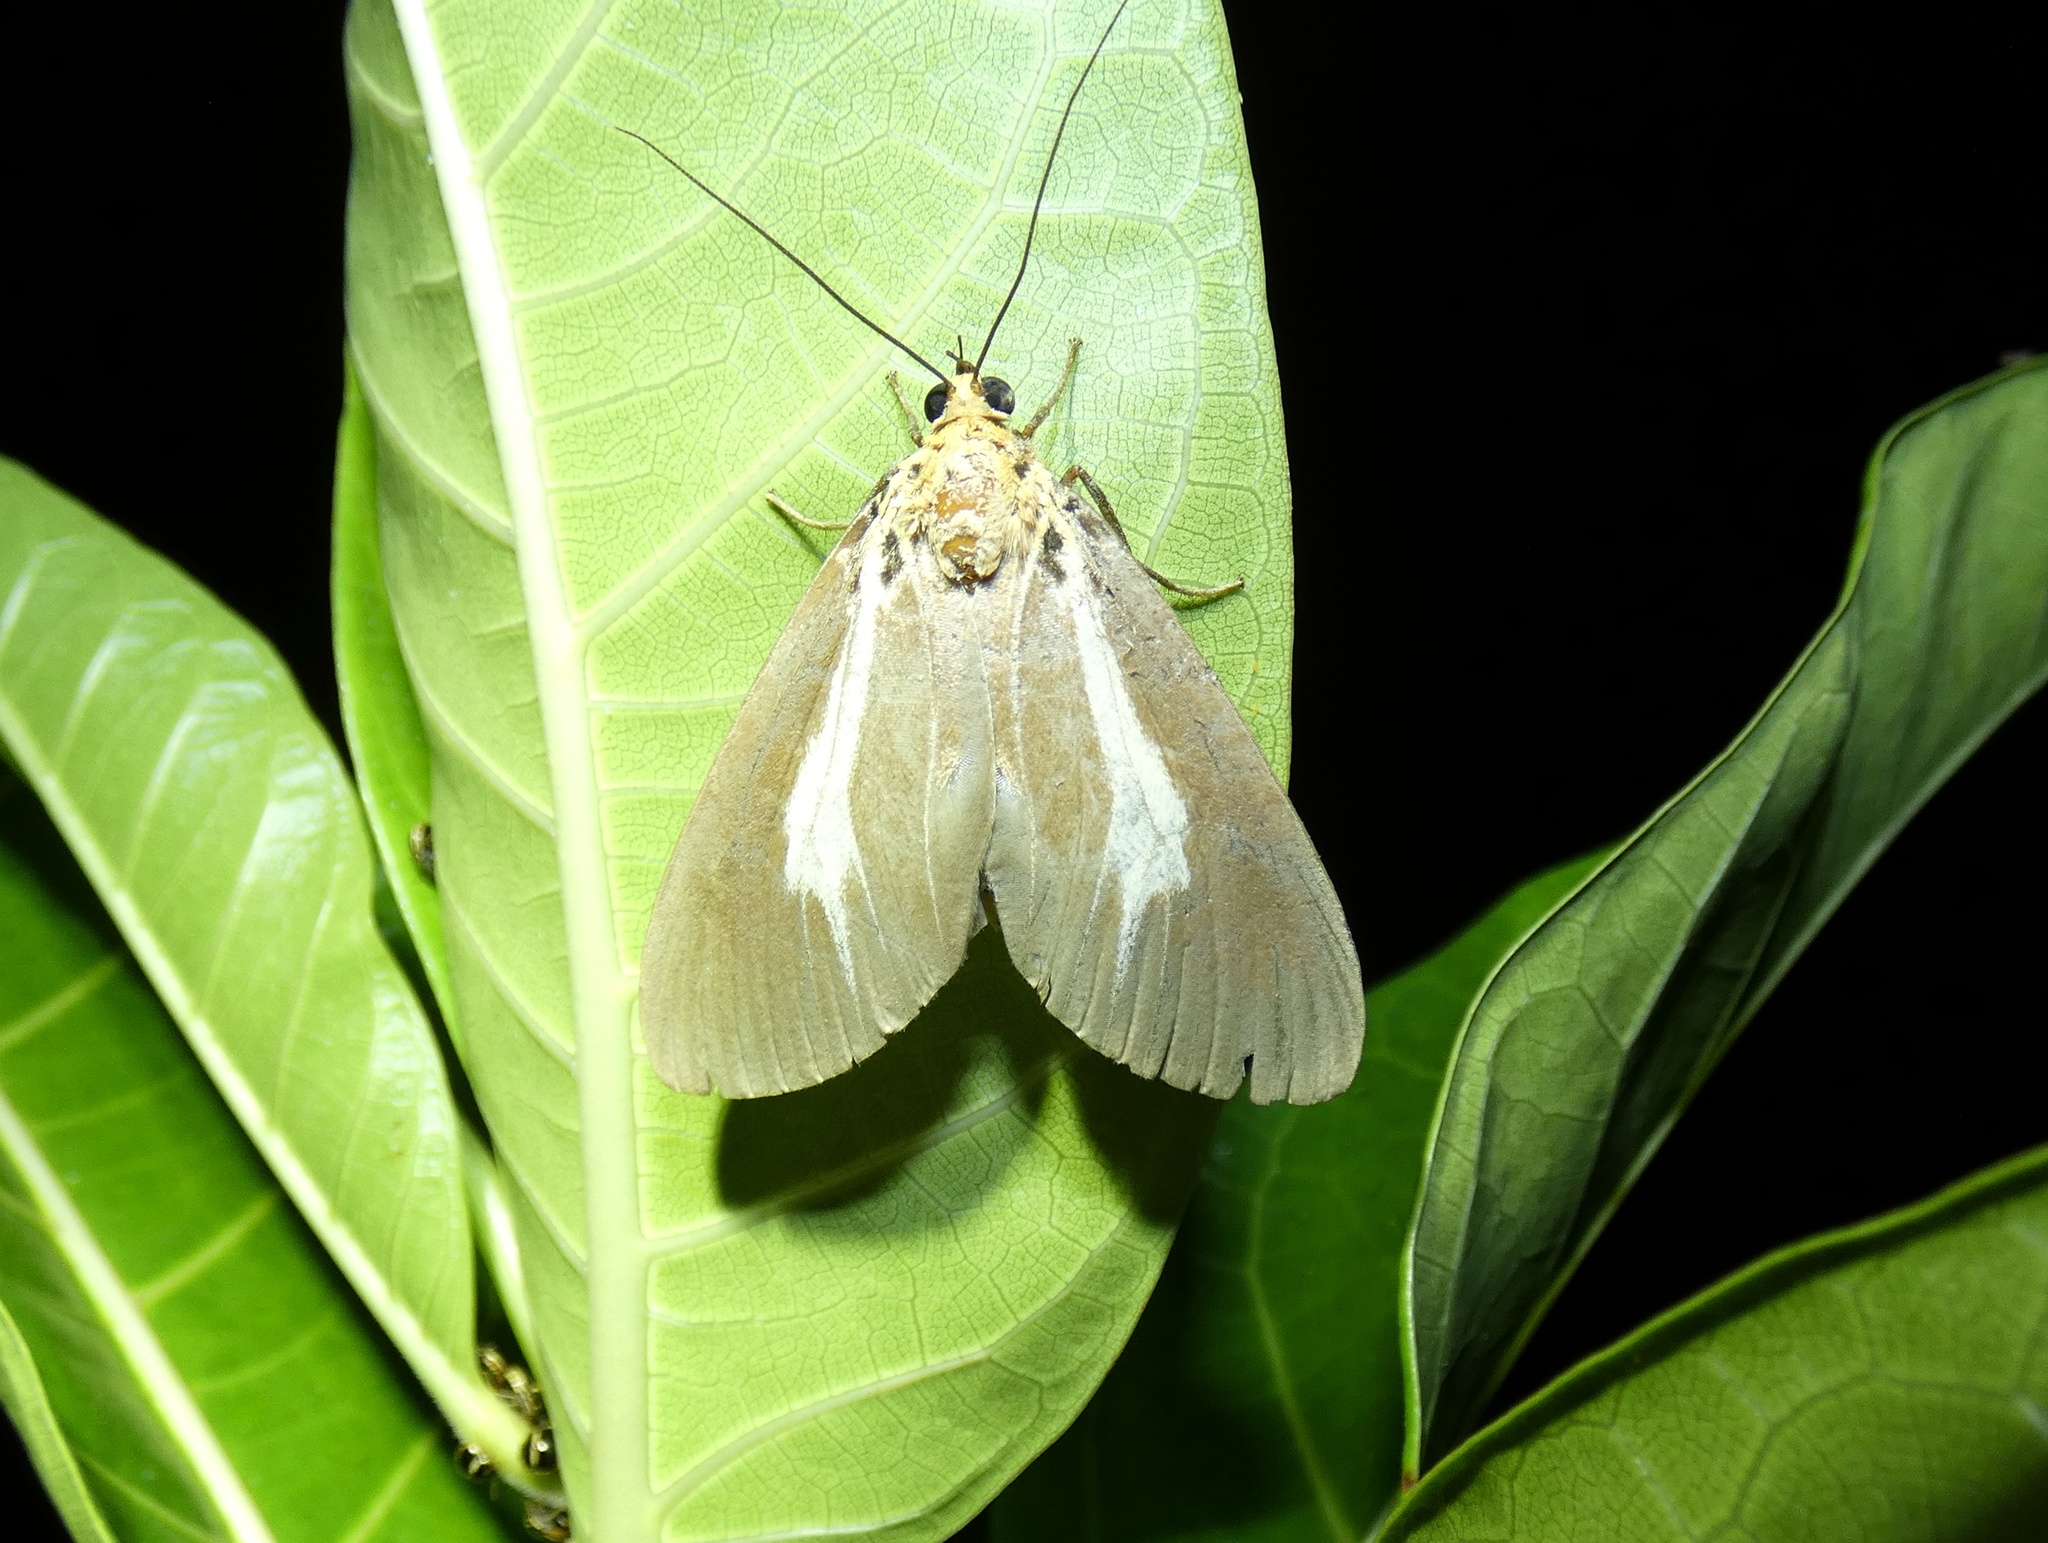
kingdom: Animalia
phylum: Arthropoda
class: Insecta
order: Lepidoptera
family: Erebidae
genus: Asota
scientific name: Asota heliconia
